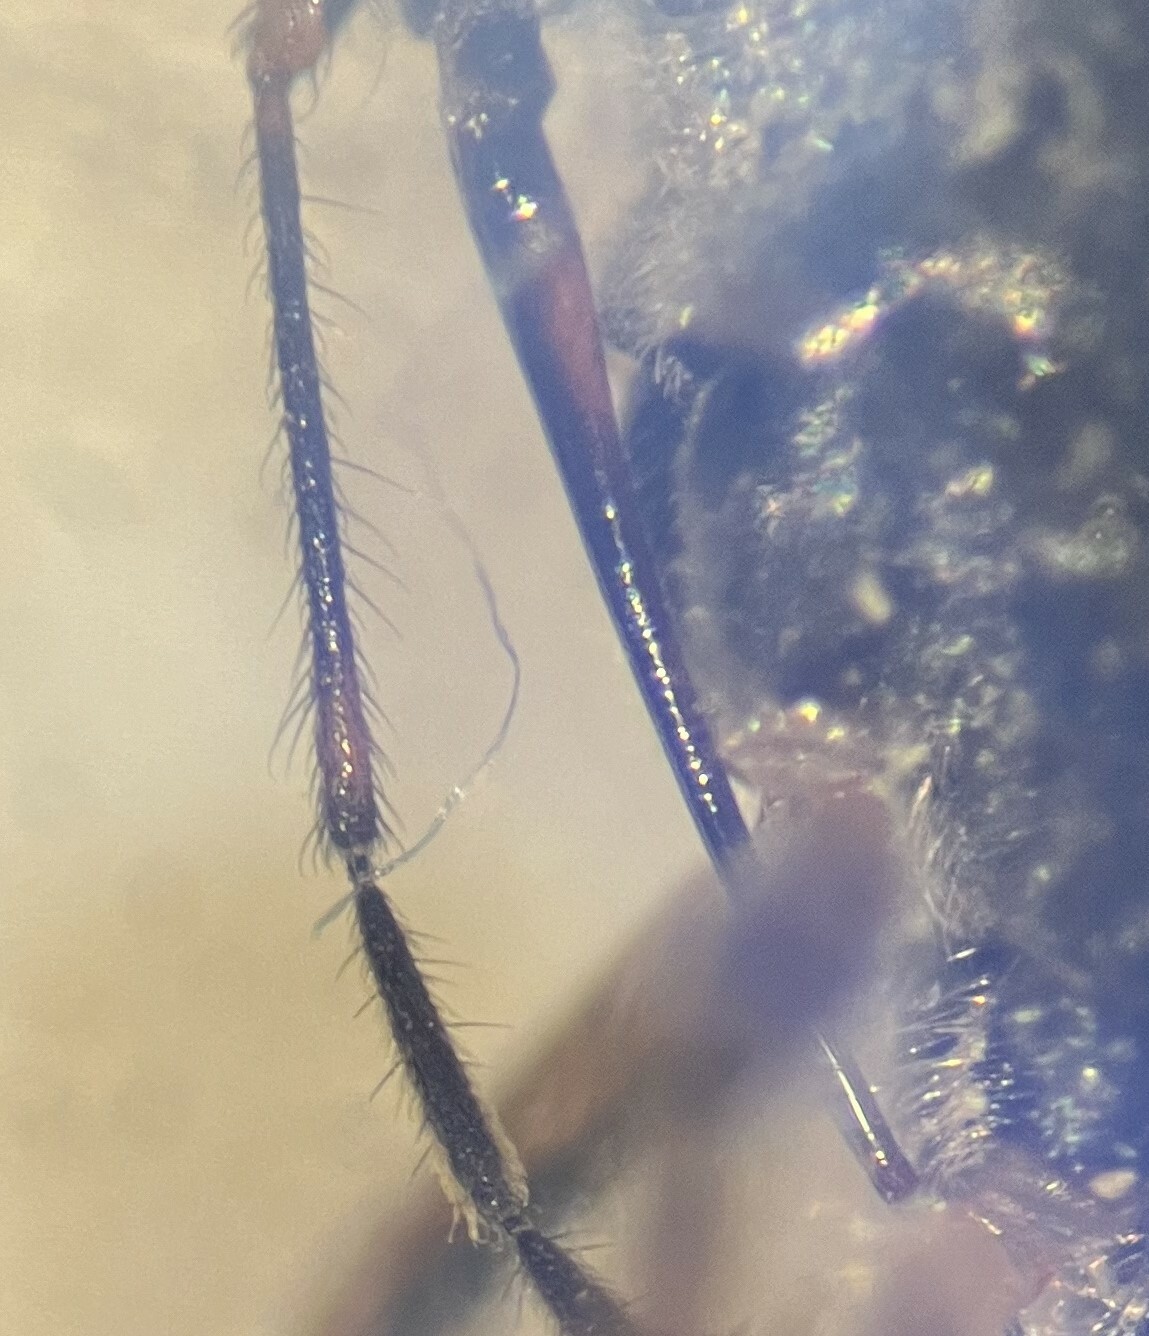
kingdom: Animalia
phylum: Arthropoda
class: Insecta
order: Hemiptera
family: Saldidae
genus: Saldula
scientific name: Saldula comatula
